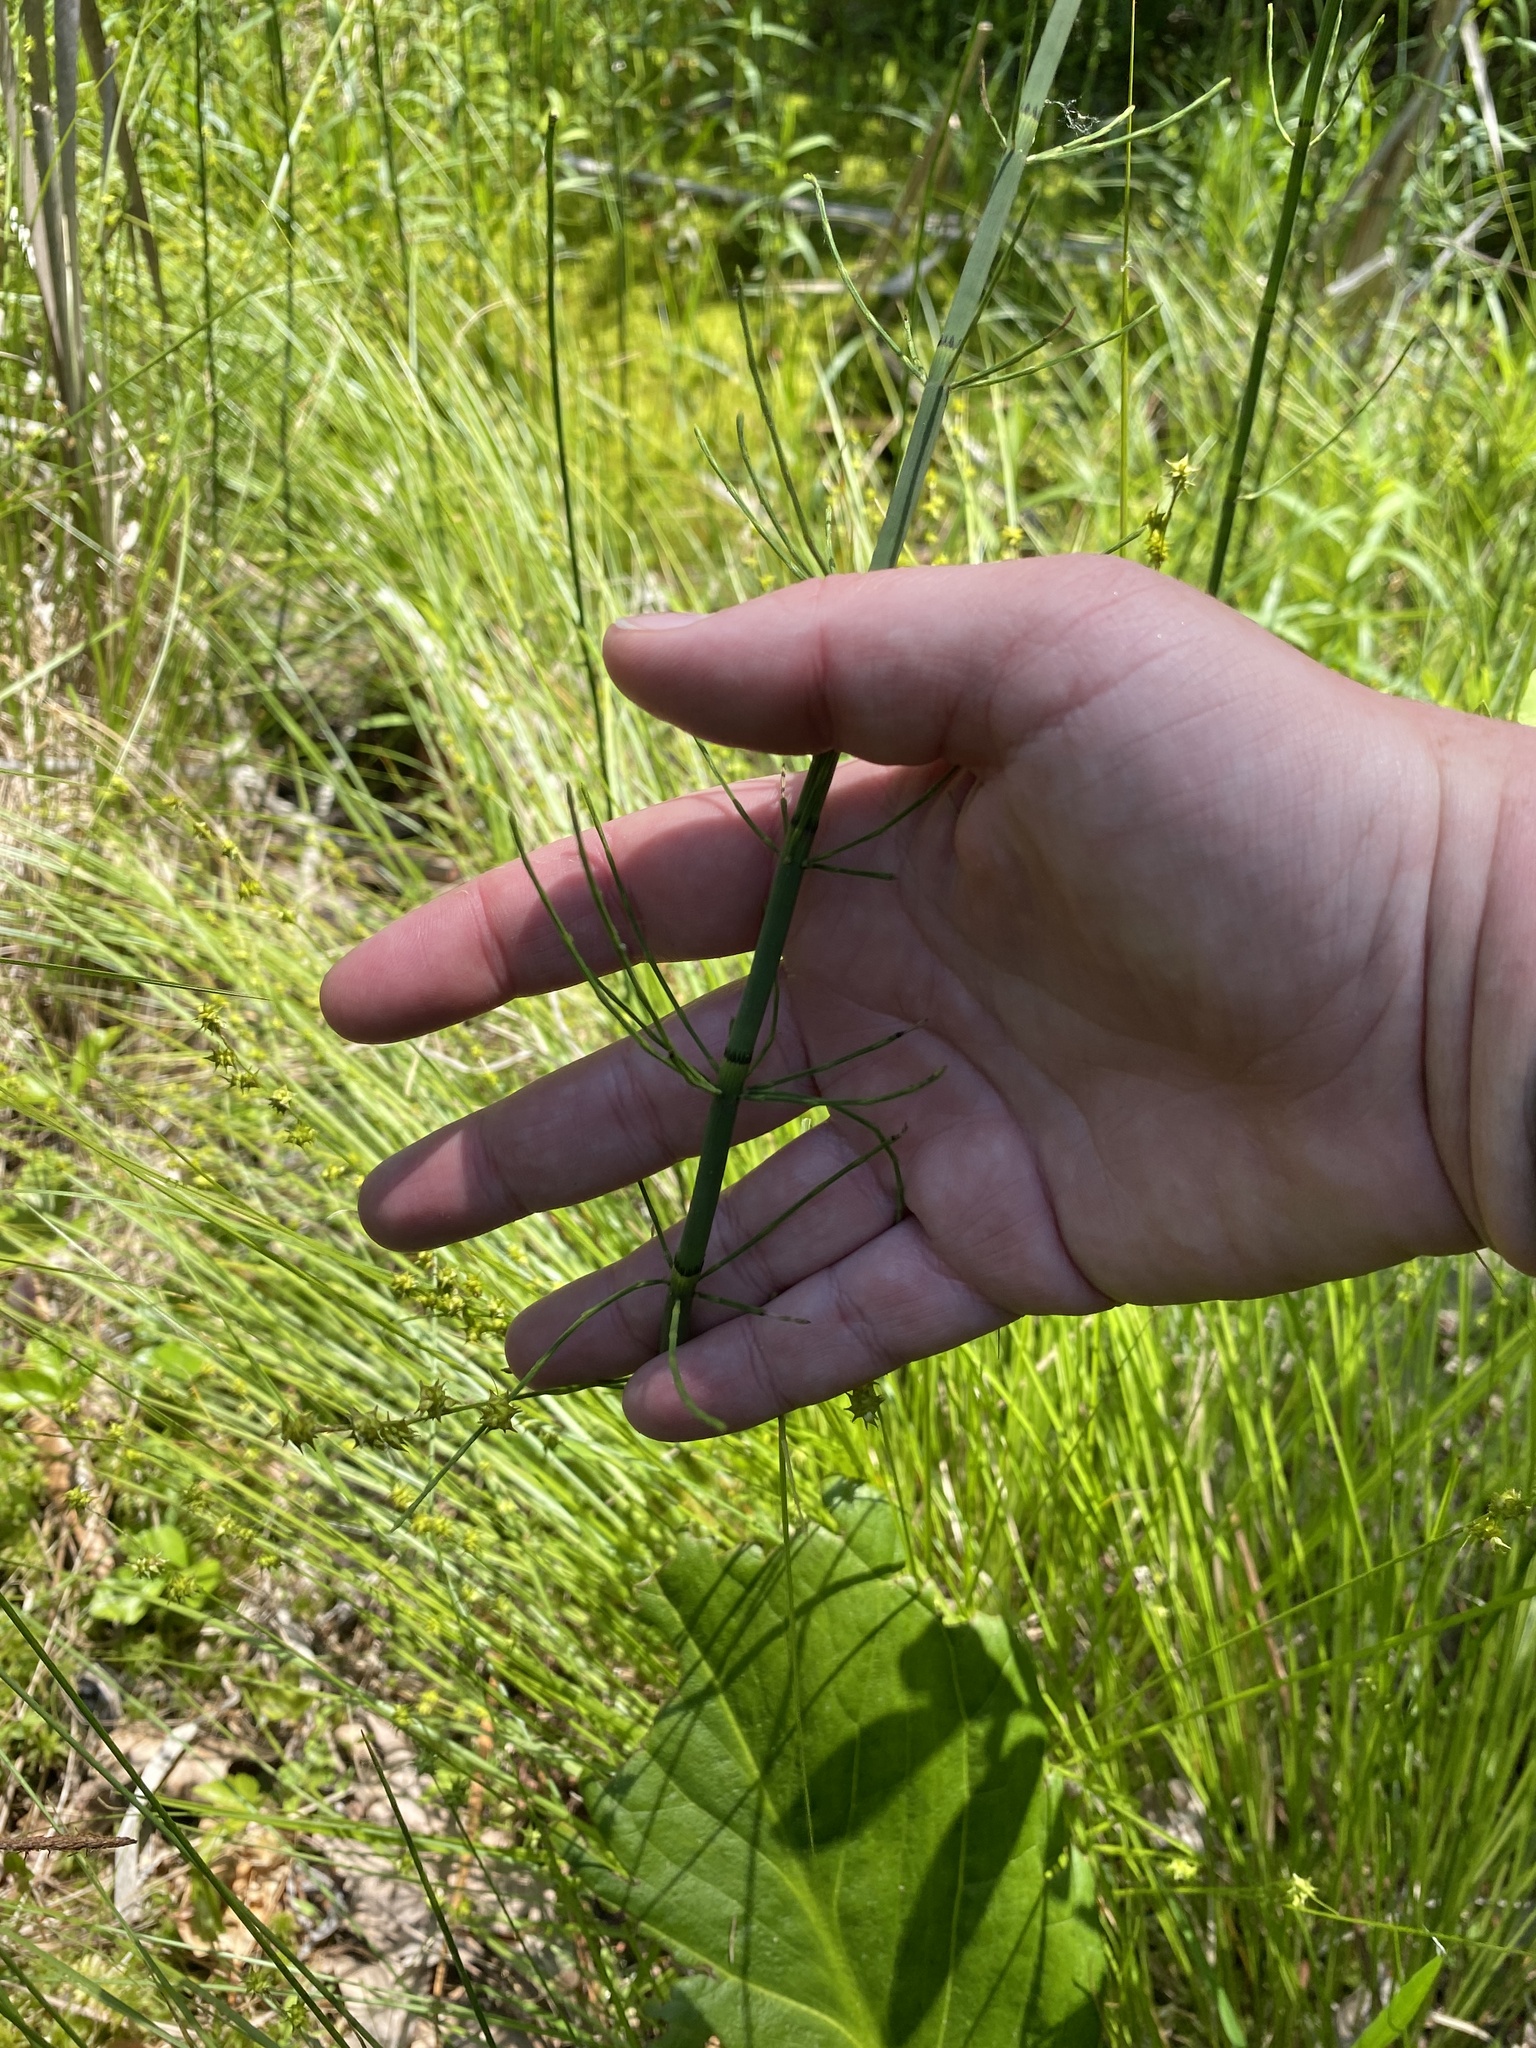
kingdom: Plantae
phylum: Tracheophyta
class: Polypodiopsida
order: Equisetales
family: Equisetaceae
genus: Equisetum
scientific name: Equisetum fluviatile
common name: Water horsetail
